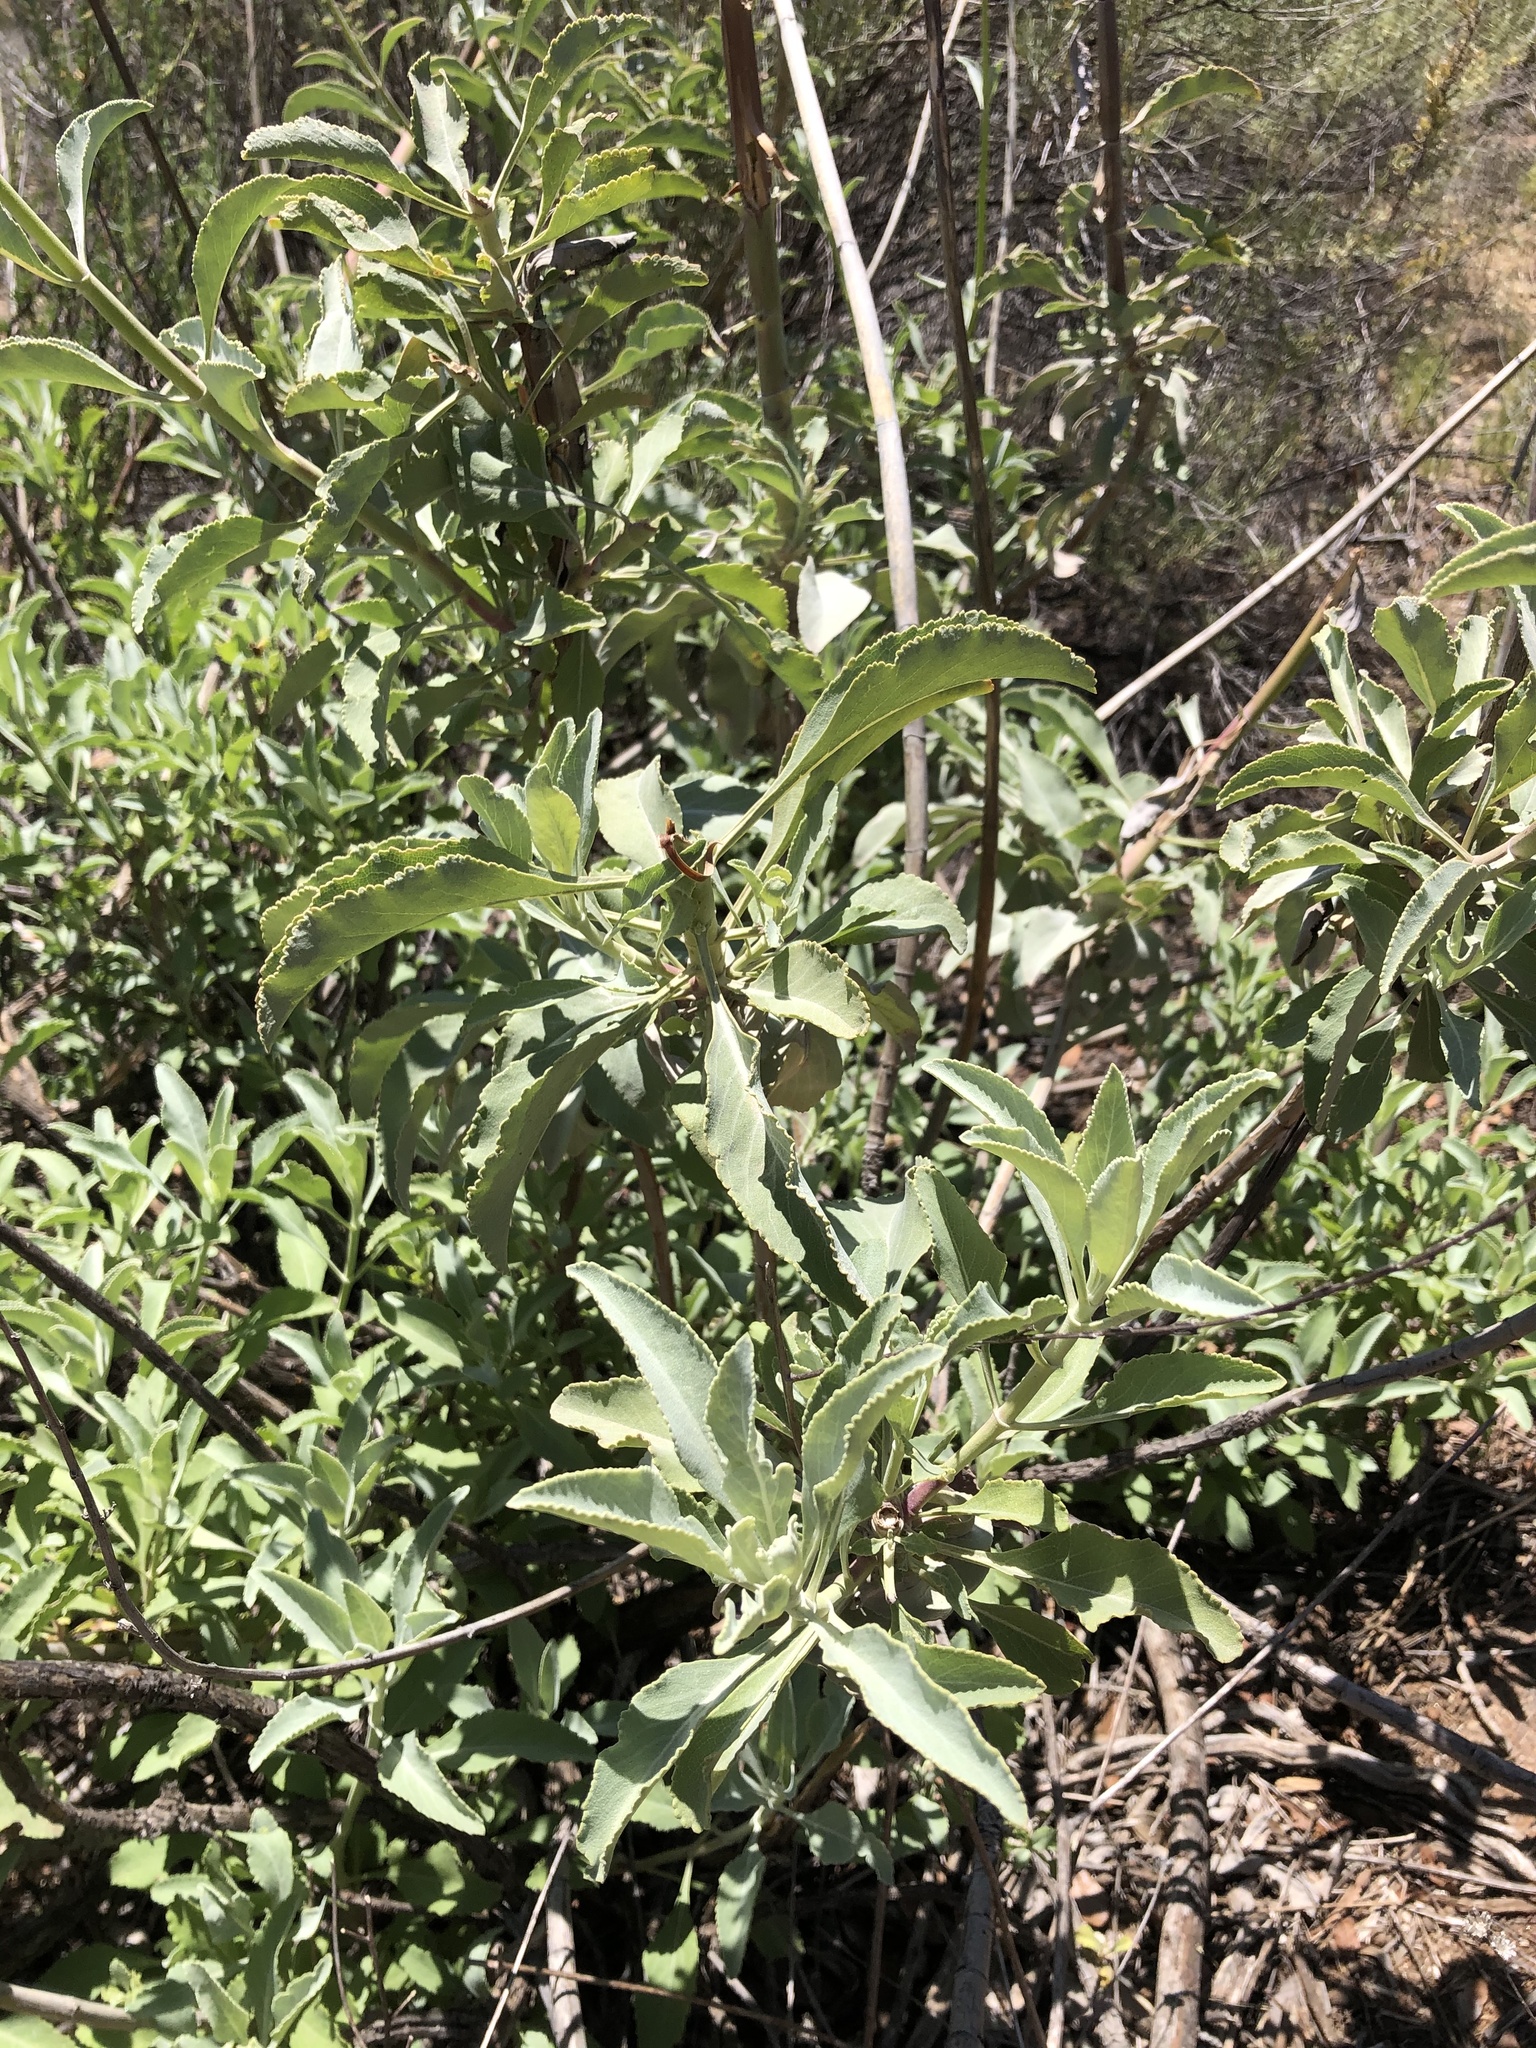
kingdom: Plantae
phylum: Tracheophyta
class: Magnoliopsida
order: Lamiales
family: Lamiaceae
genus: Salvia
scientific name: Salvia apiana
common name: White sage
